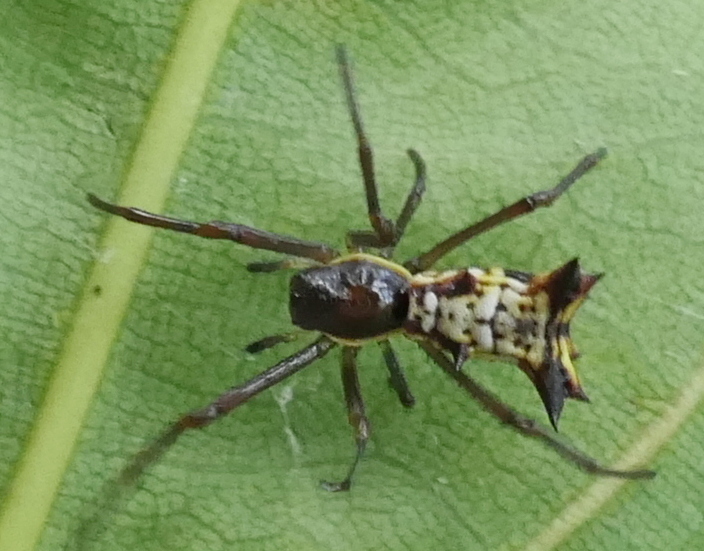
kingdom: Animalia
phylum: Arthropoda
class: Arachnida
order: Araneae
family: Araneidae
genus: Micrathena
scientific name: Micrathena fissispina
